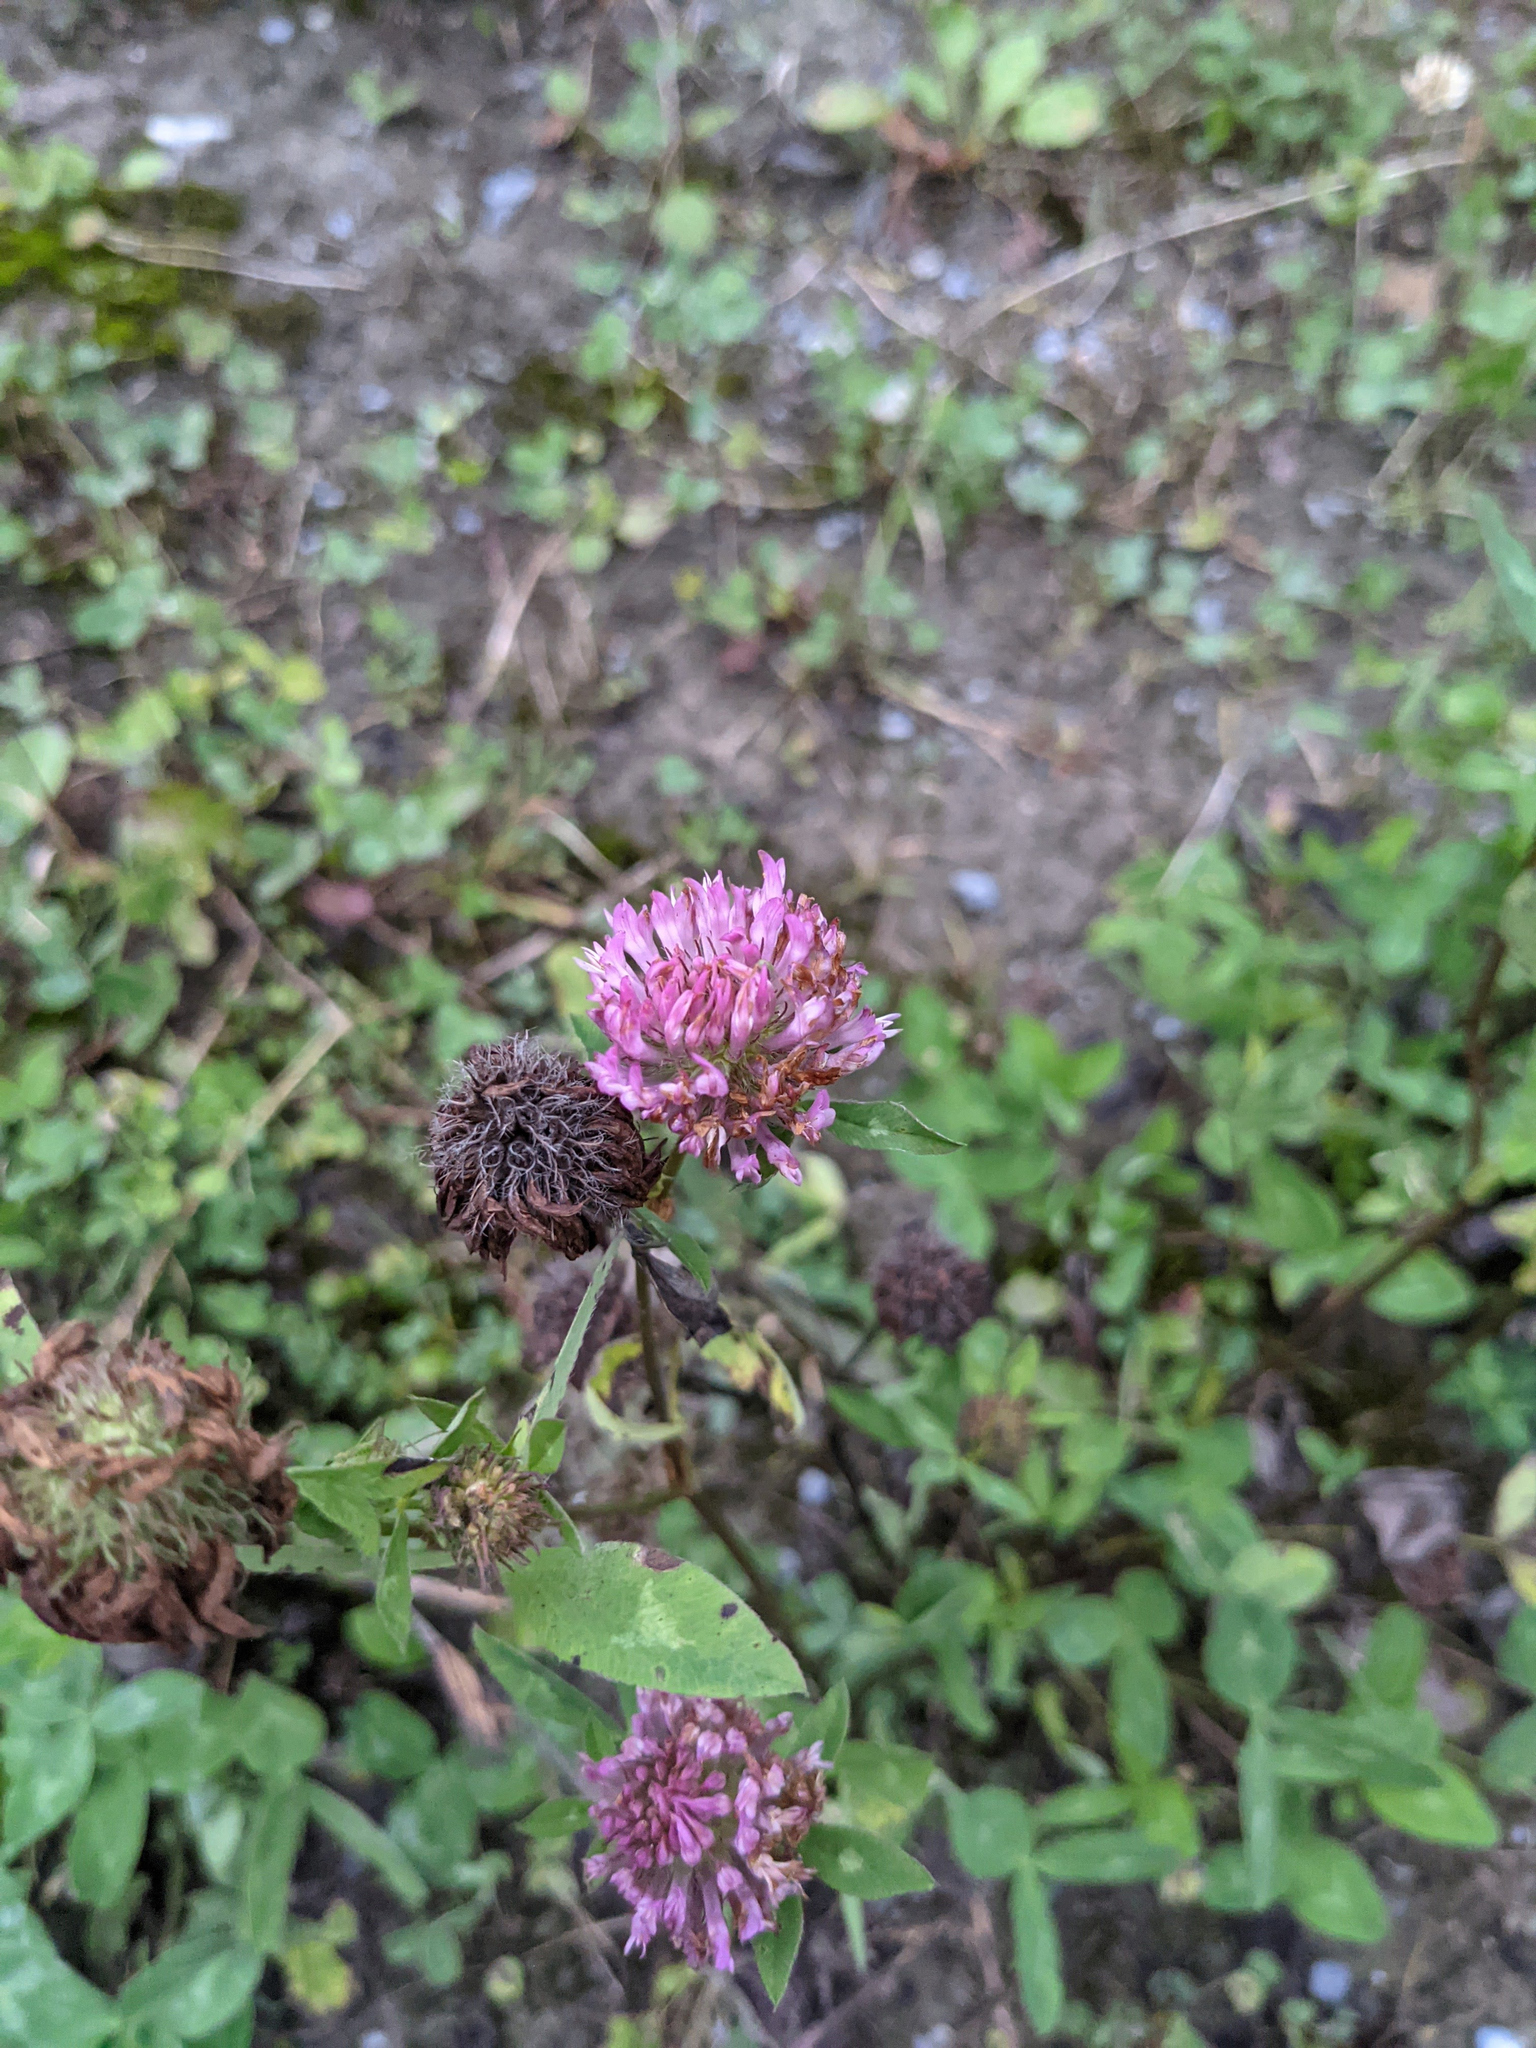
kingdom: Plantae
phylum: Tracheophyta
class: Magnoliopsida
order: Fabales
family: Fabaceae
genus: Trifolium
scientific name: Trifolium pratense
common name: Red clover
